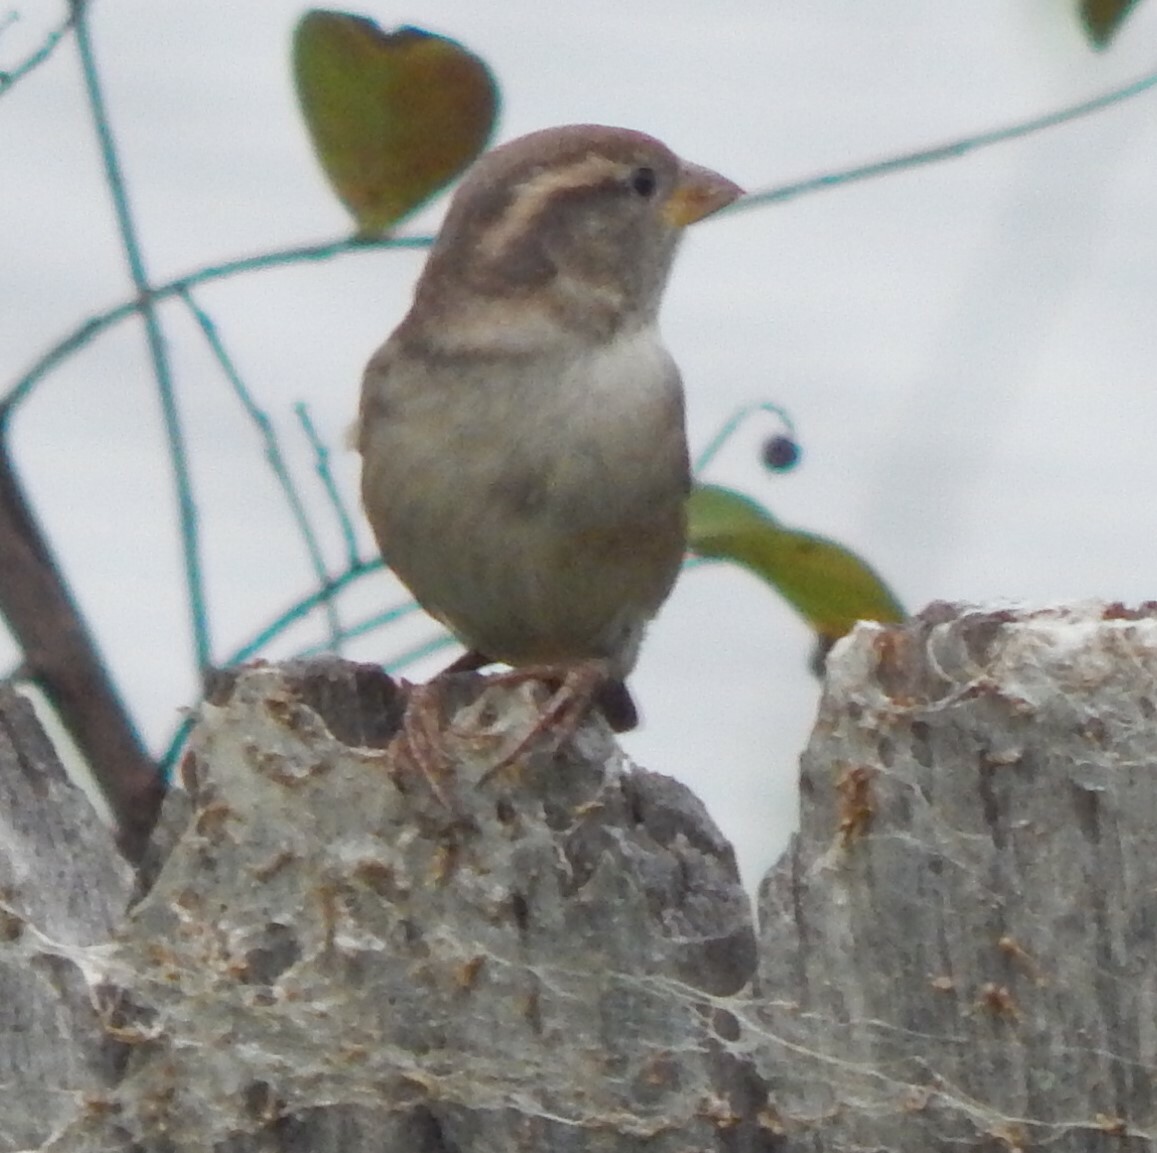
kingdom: Animalia
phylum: Chordata
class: Aves
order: Passeriformes
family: Passeridae
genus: Passer
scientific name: Passer domesticus
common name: House sparrow
